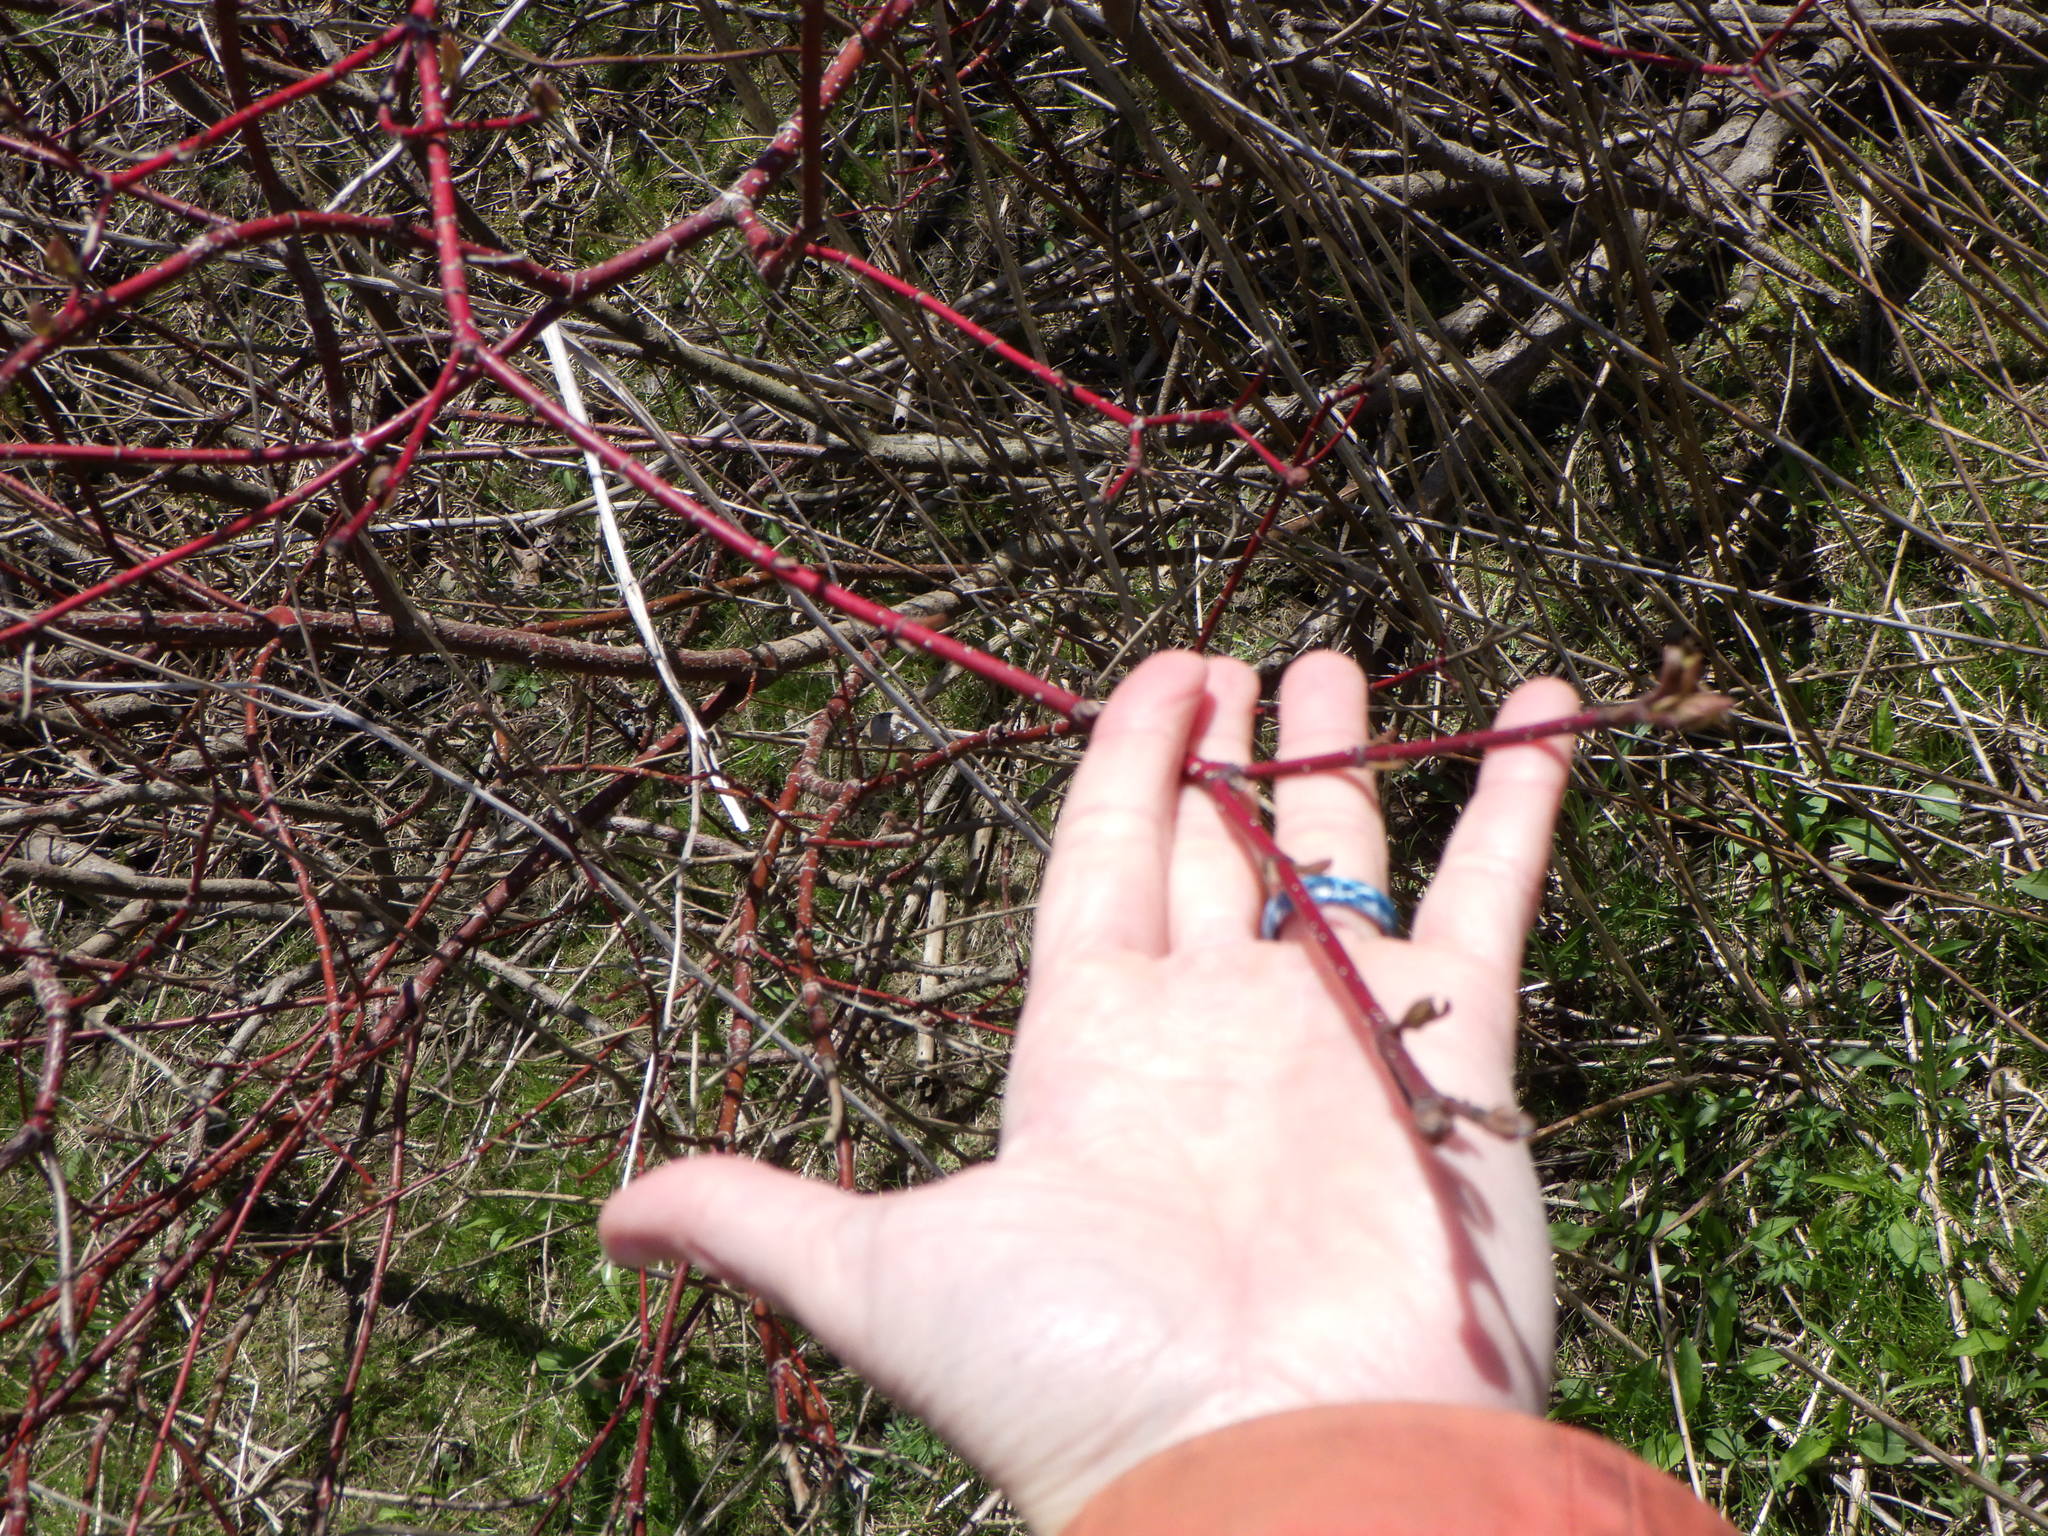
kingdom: Plantae
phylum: Tracheophyta
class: Magnoliopsida
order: Cornales
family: Cornaceae
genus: Cornus
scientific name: Cornus sericea
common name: Red-osier dogwood
